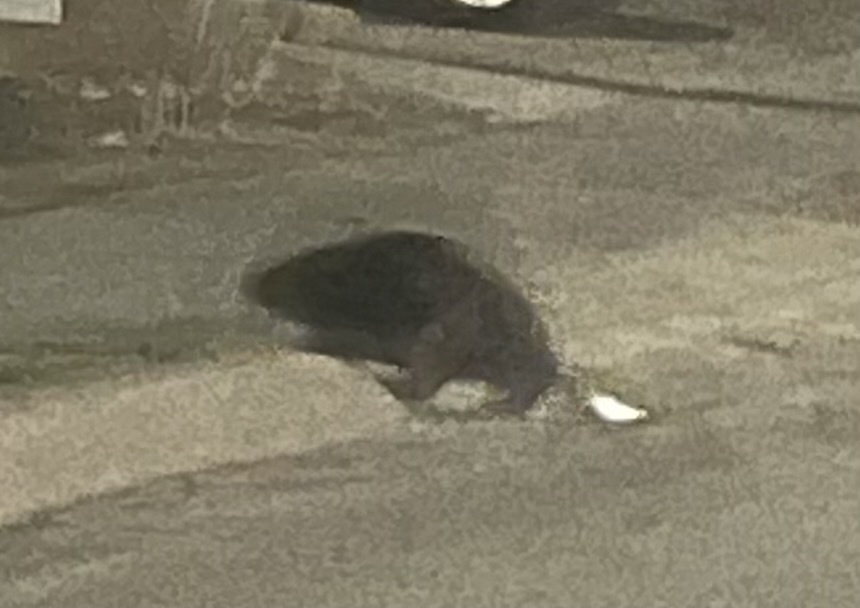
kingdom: Animalia
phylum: Chordata
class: Mammalia
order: Rodentia
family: Cricetidae
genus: Ondatra
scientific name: Ondatra zibethicus
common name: Muskrat
